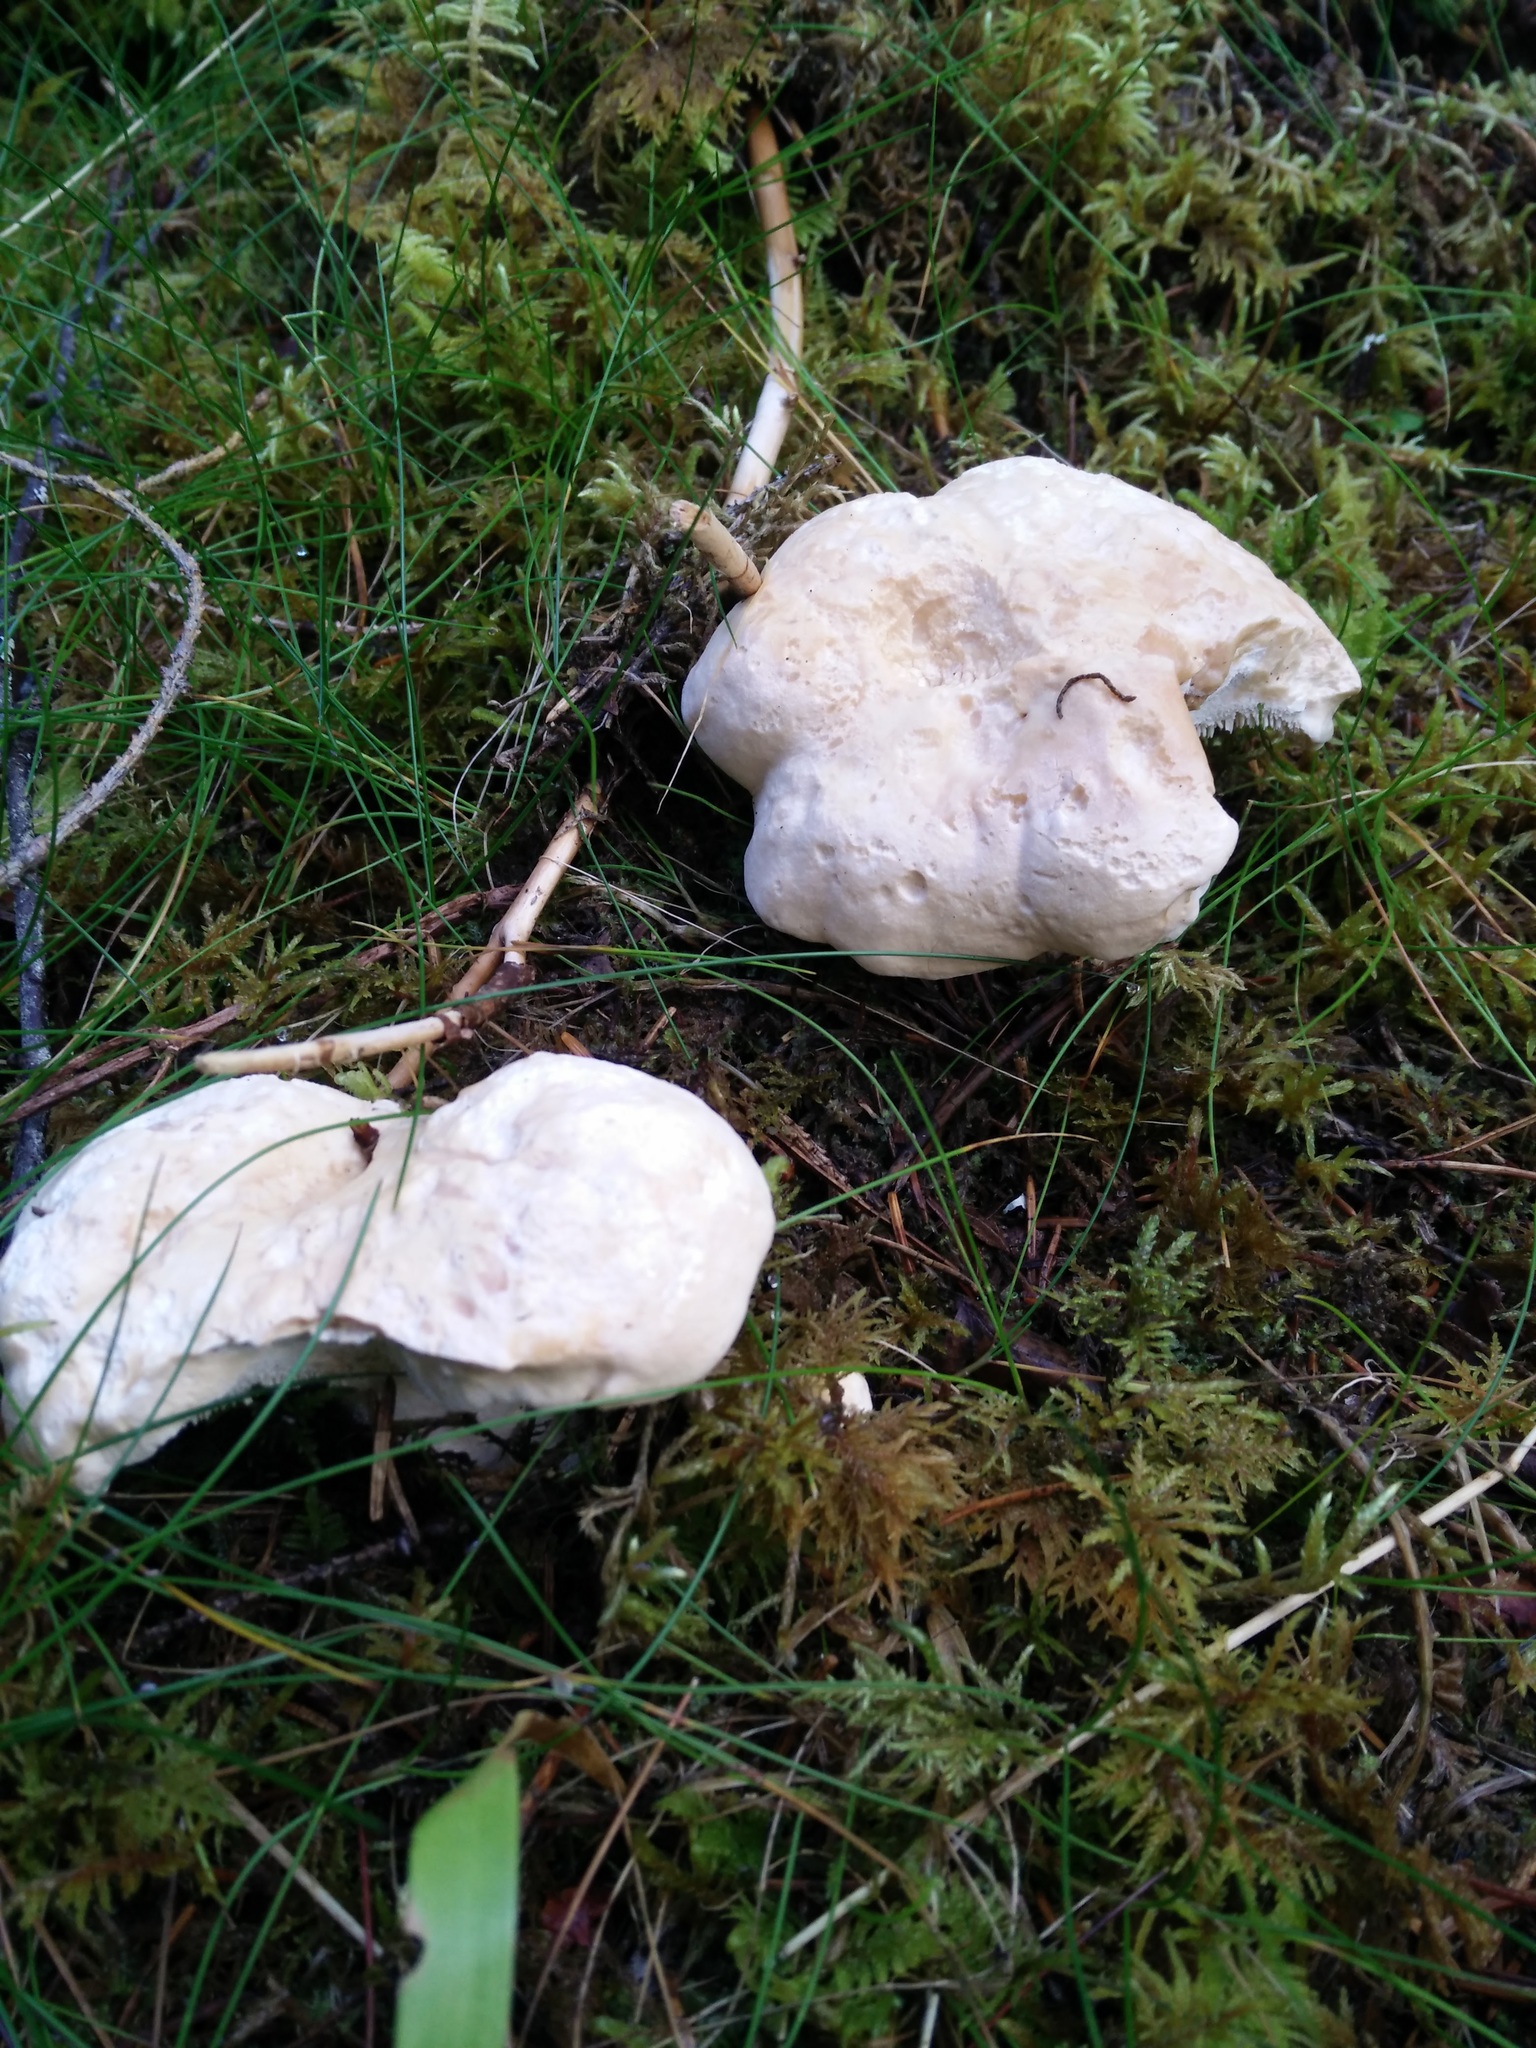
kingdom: Fungi
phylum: Basidiomycota
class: Agaricomycetes
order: Cantharellales
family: Hydnaceae
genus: Hydnum
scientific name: Hydnum repandum
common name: Wood hedgehog
